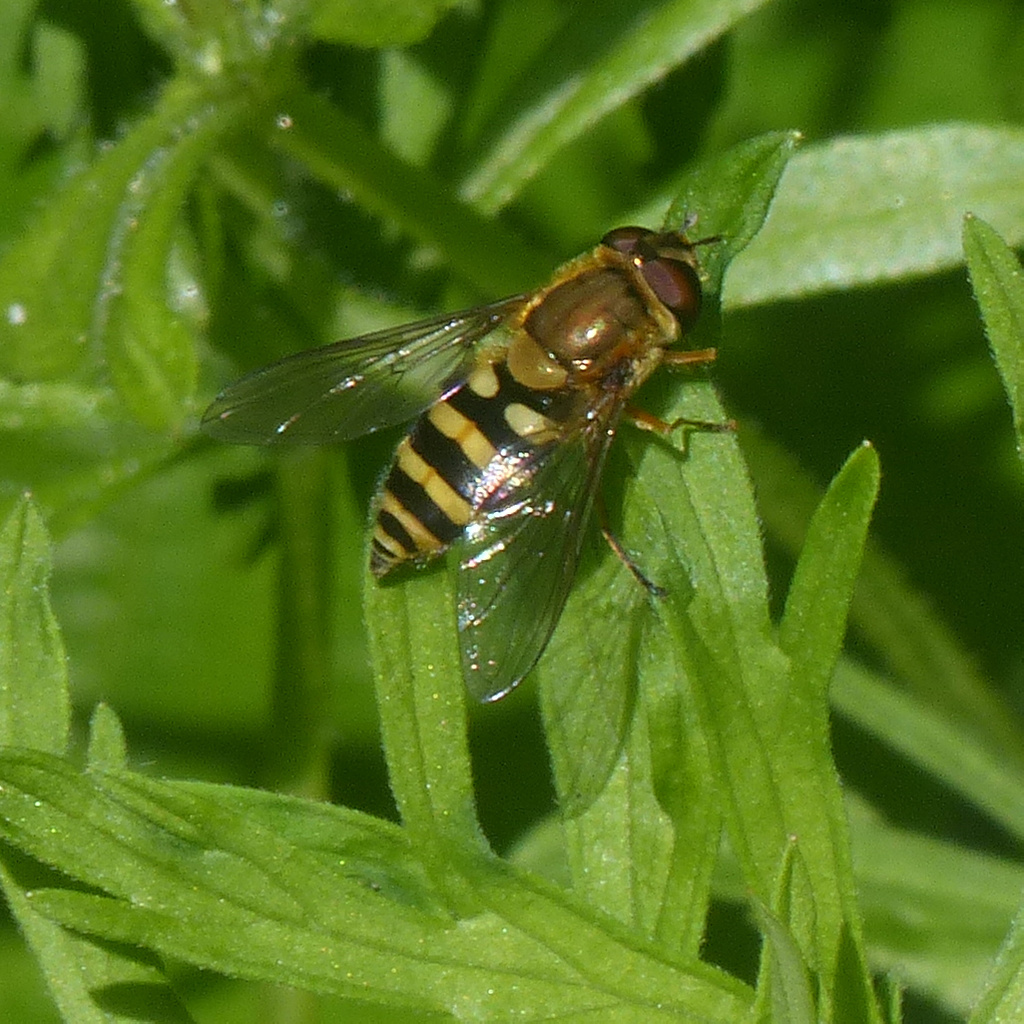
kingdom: Animalia
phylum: Arthropoda
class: Insecta
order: Diptera
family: Syrphidae
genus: Syrphus
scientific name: Syrphus
